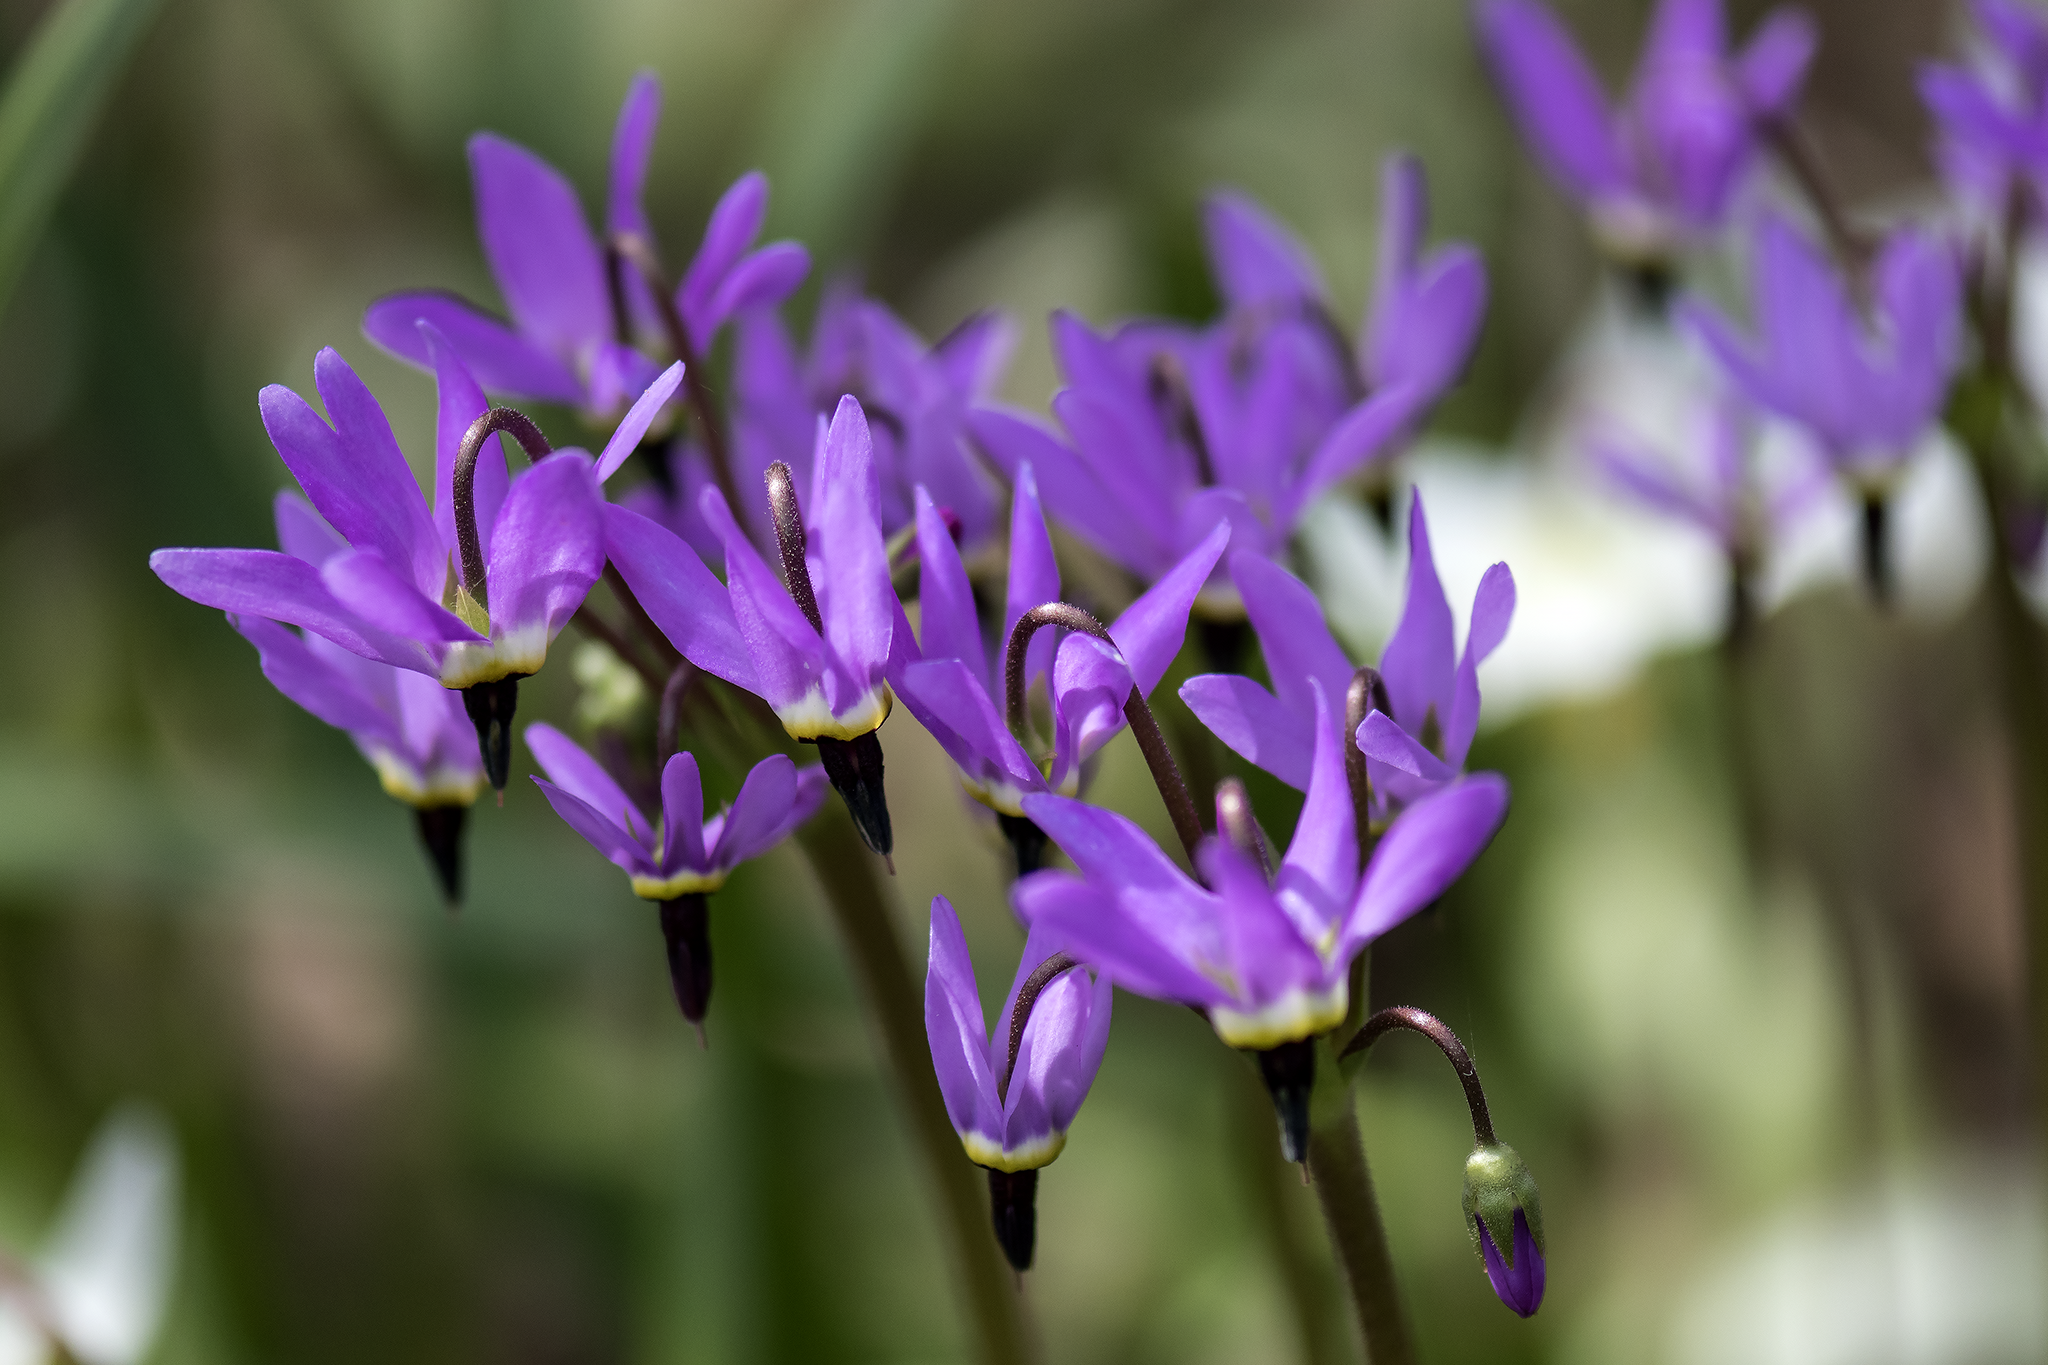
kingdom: Plantae
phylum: Tracheophyta
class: Magnoliopsida
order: Ericales
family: Primulaceae
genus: Dodecatheon
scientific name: Dodecatheon hendersonii
